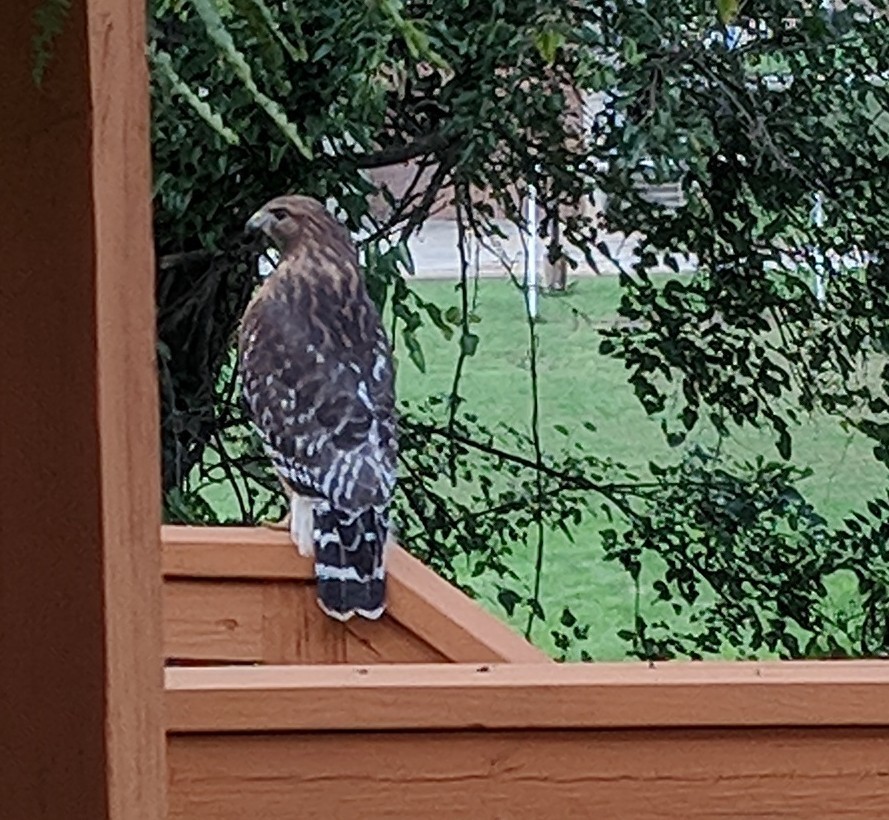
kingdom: Animalia
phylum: Chordata
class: Aves
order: Accipitriformes
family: Accipitridae
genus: Buteo
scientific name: Buteo lineatus
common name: Red-shouldered hawk
